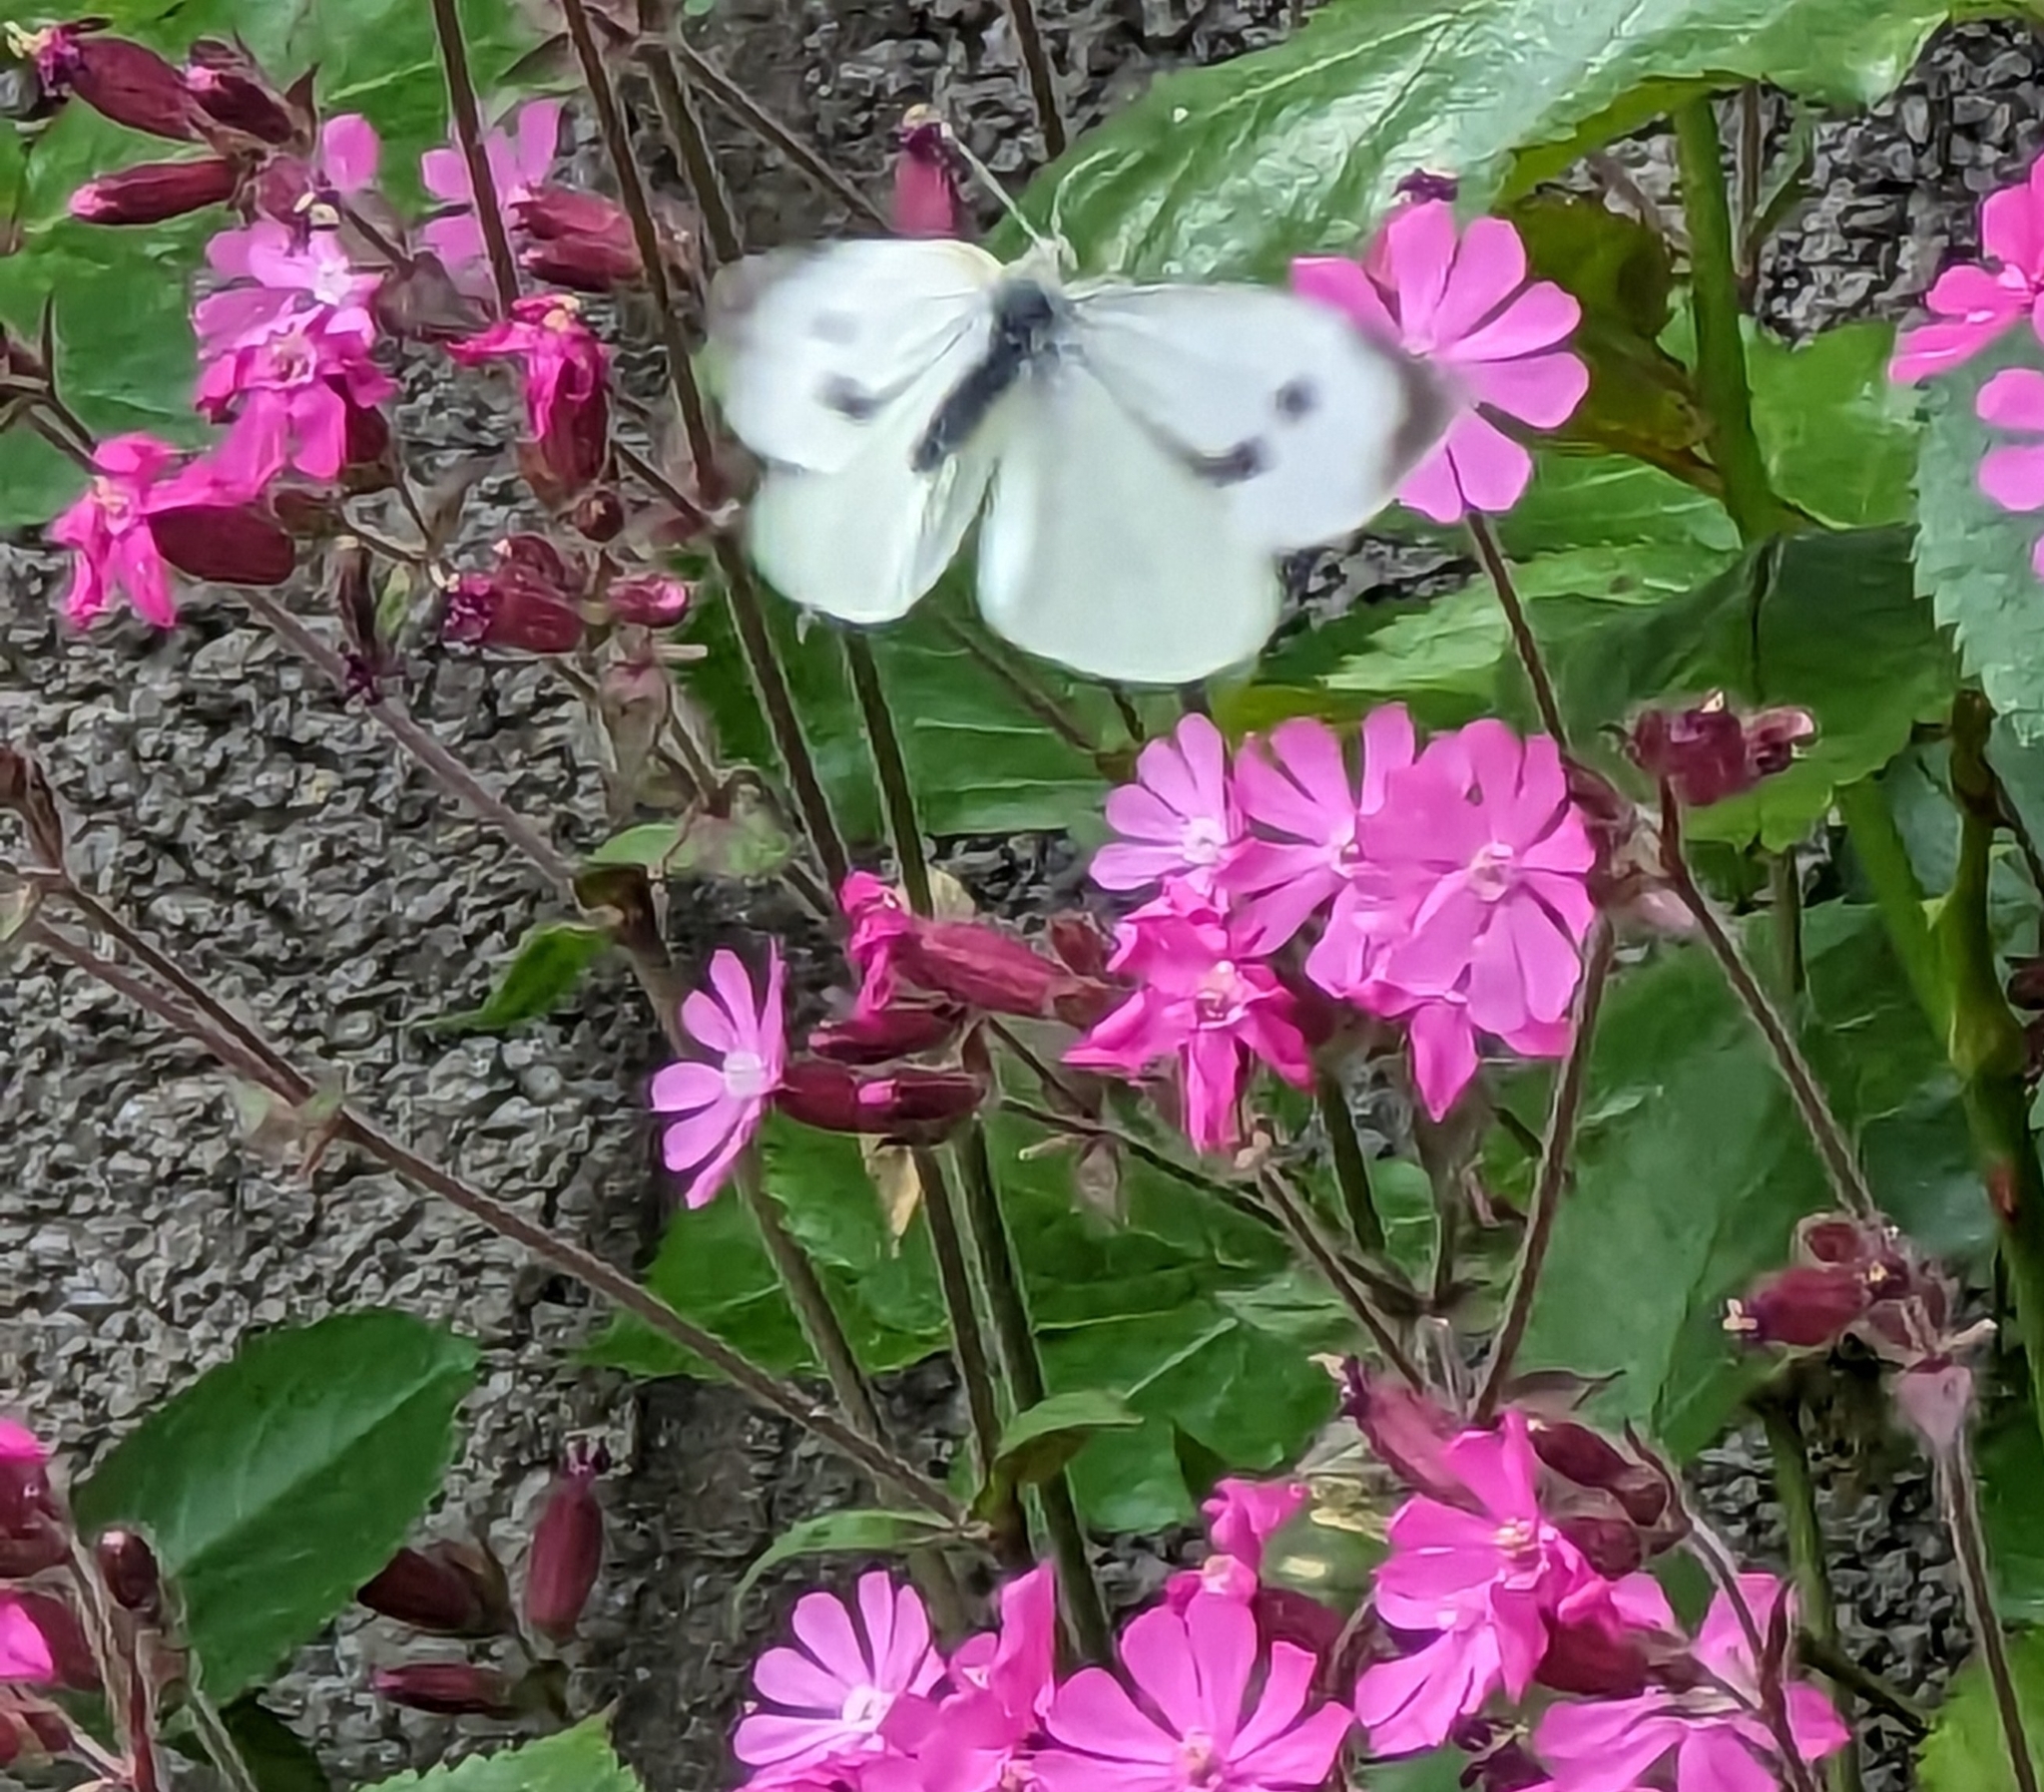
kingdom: Animalia
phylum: Arthropoda
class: Insecta
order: Lepidoptera
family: Pieridae
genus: Pieris
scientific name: Pieris brassicae
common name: Large white
